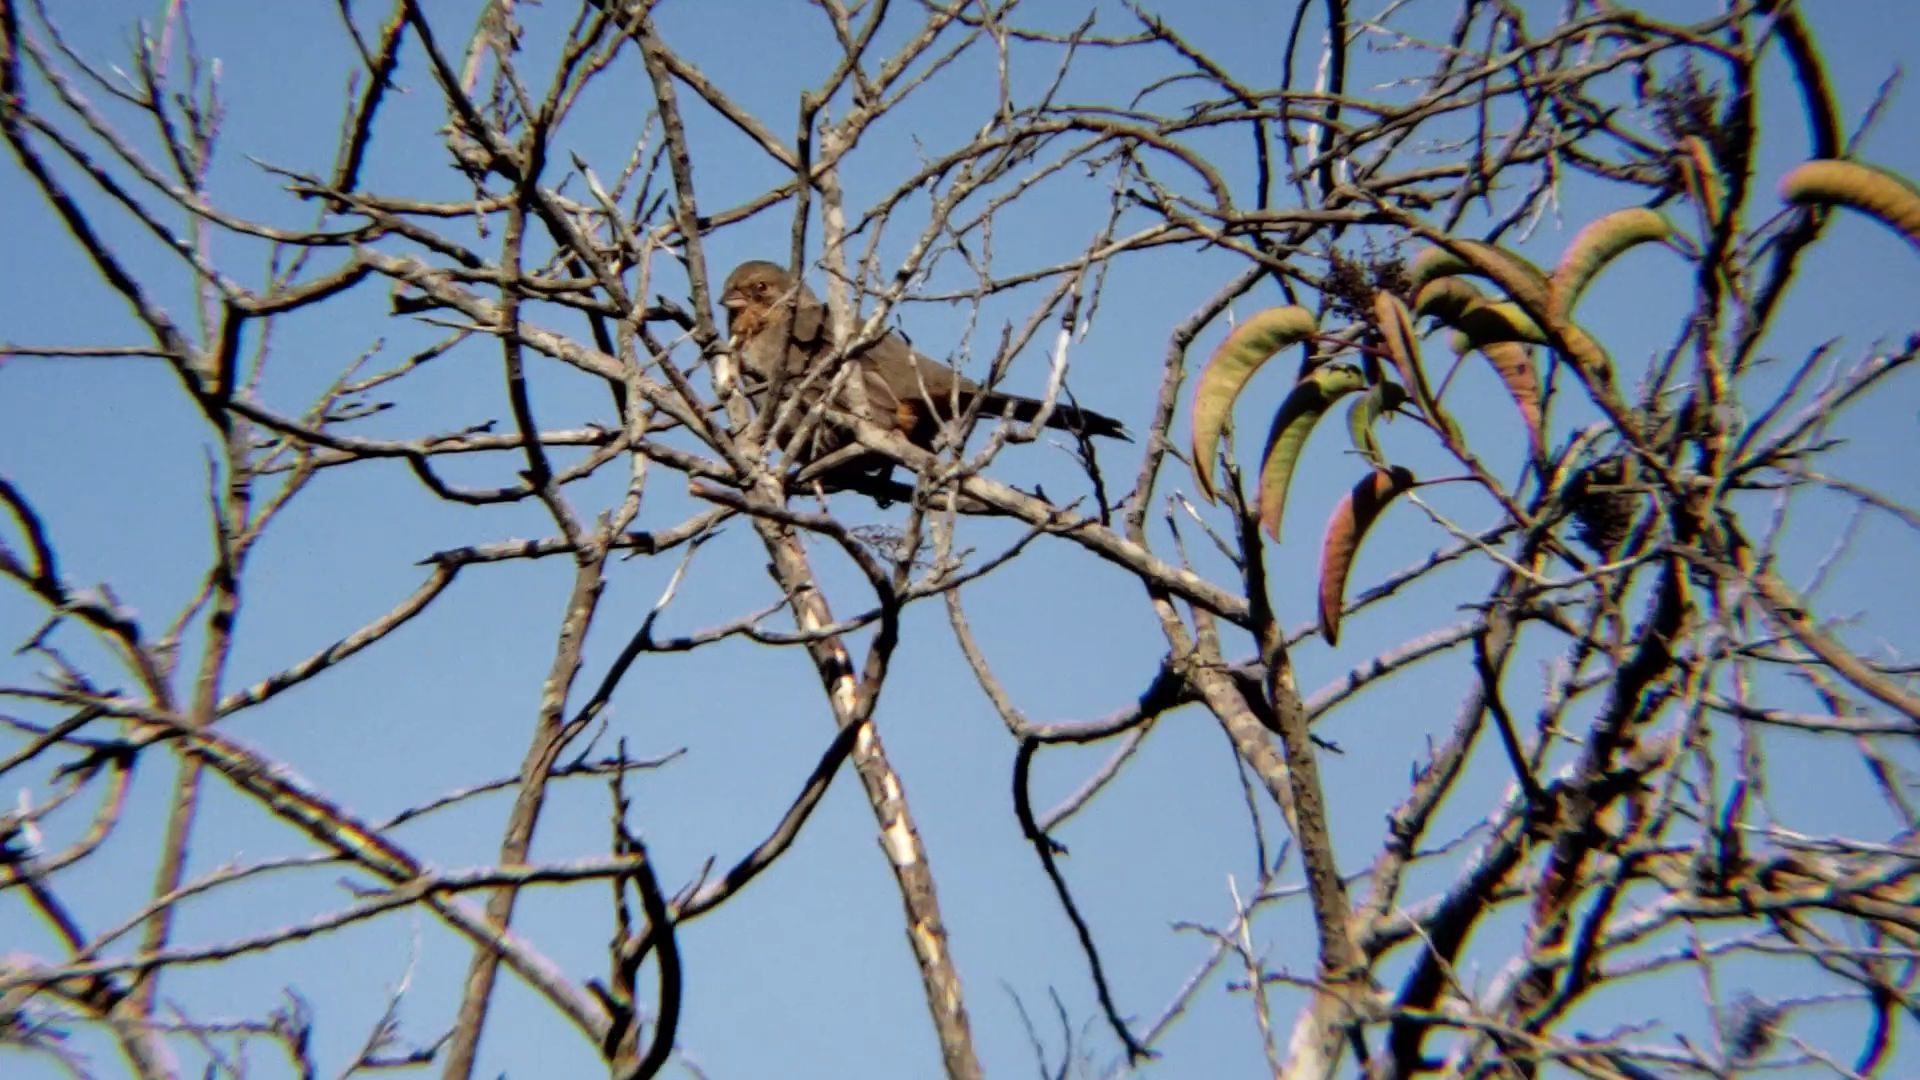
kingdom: Animalia
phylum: Chordata
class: Aves
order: Passeriformes
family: Passerellidae
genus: Melozone
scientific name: Melozone crissalis
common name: California towhee
